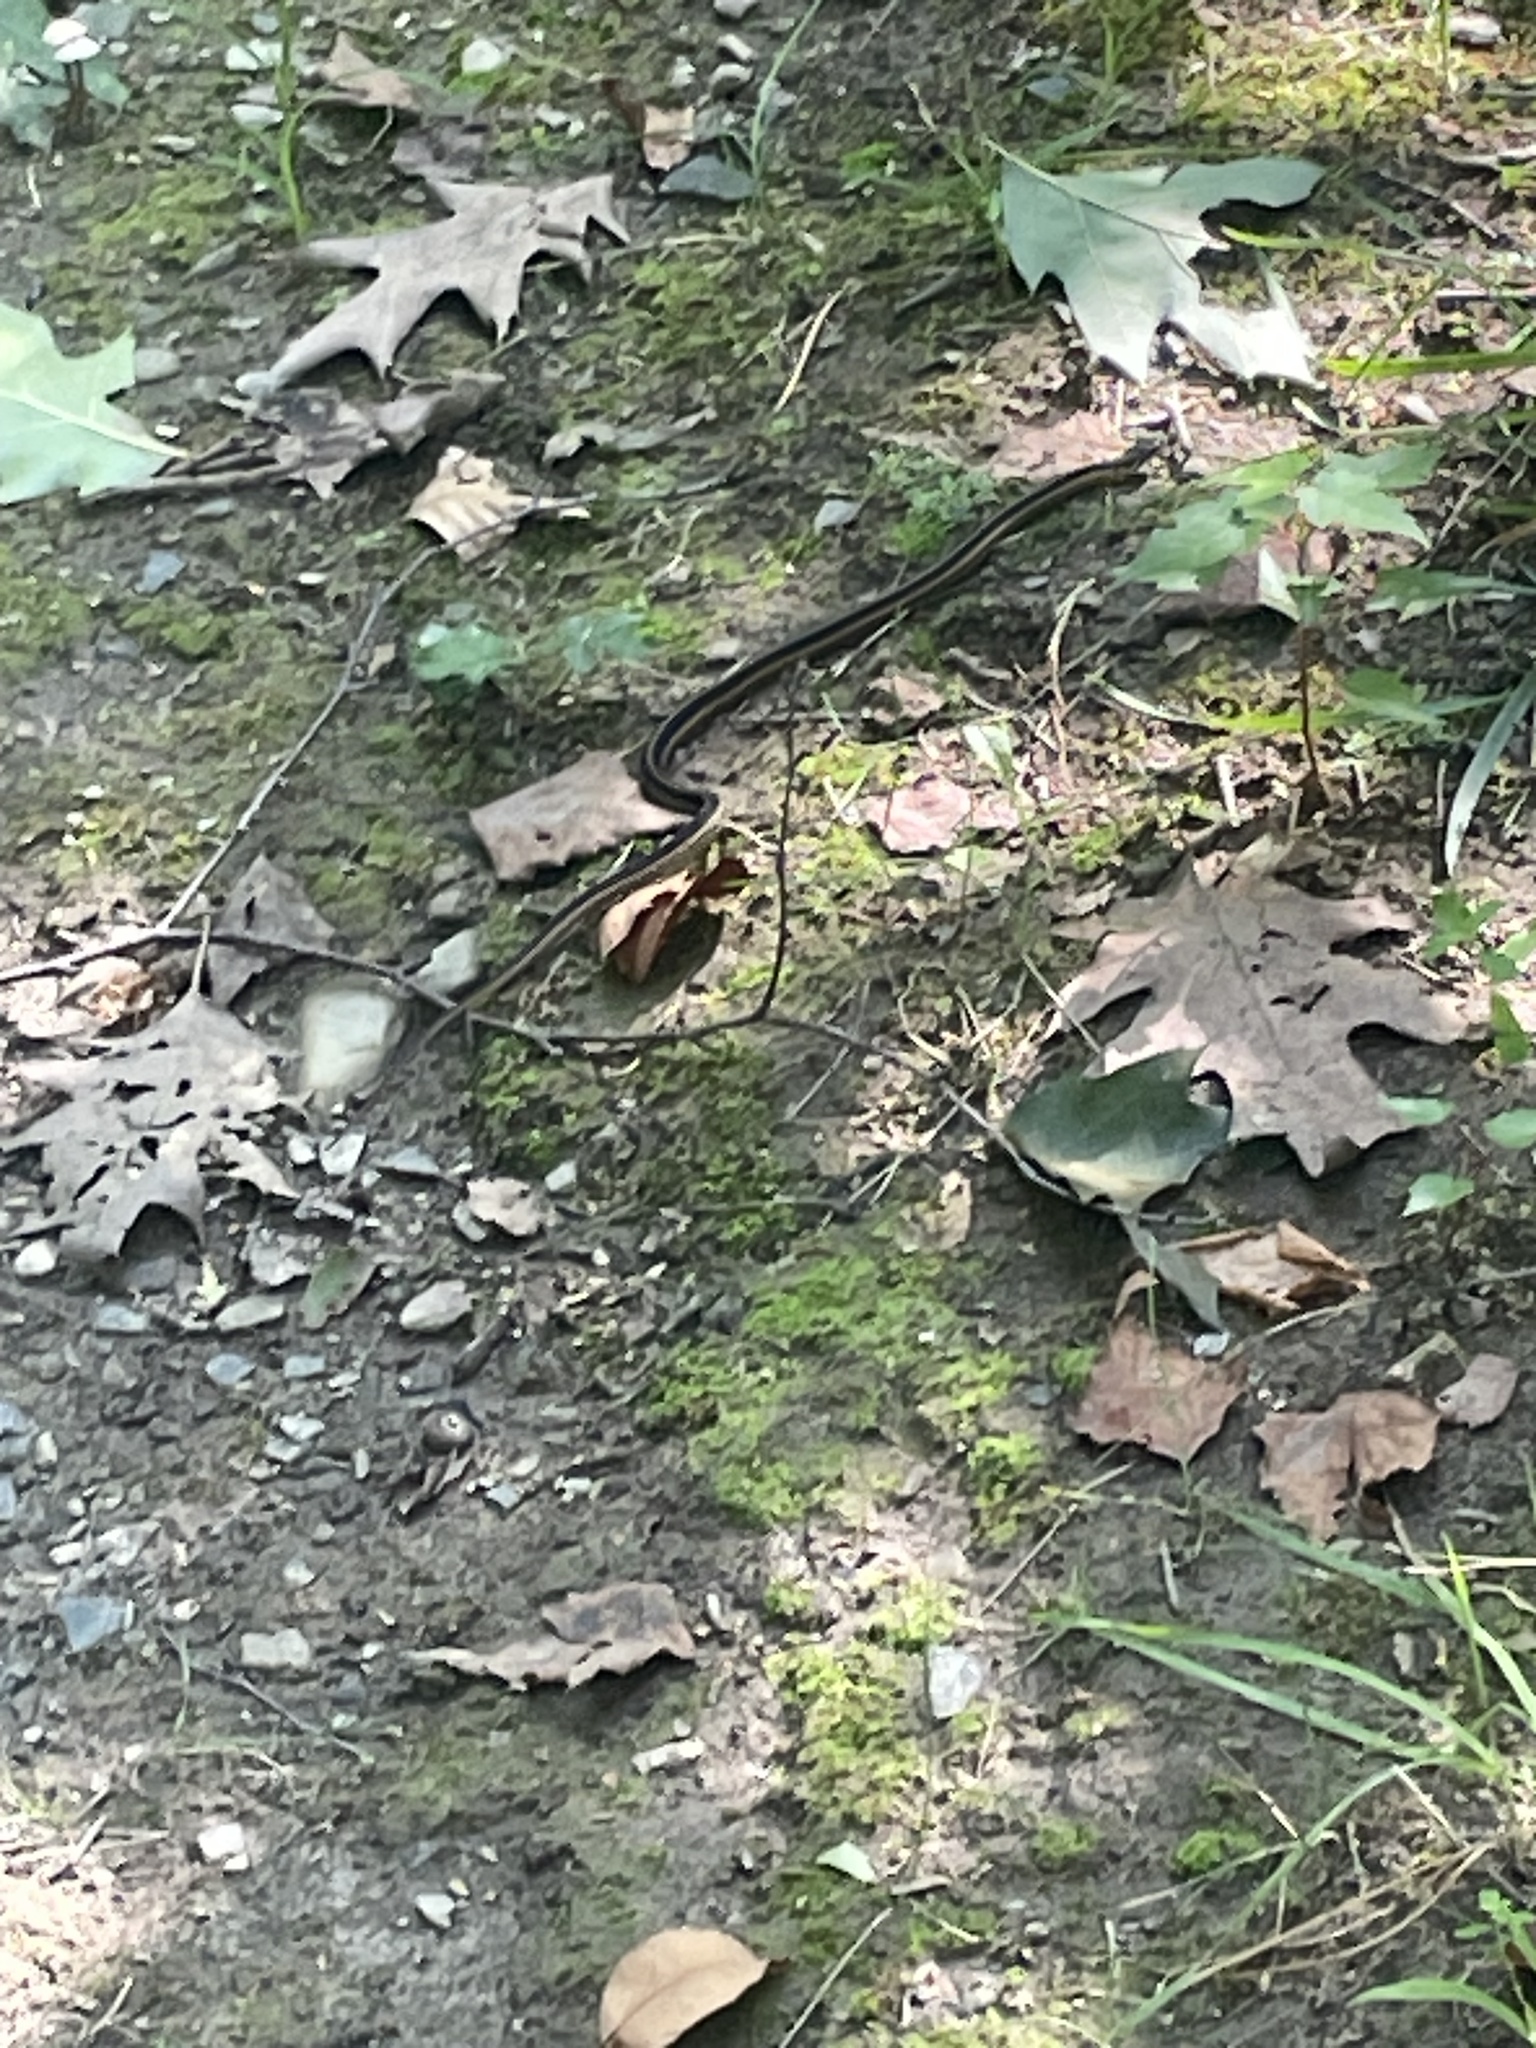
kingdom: Animalia
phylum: Chordata
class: Squamata
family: Colubridae
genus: Thamnophis
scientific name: Thamnophis sirtalis
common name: Common garter snake
